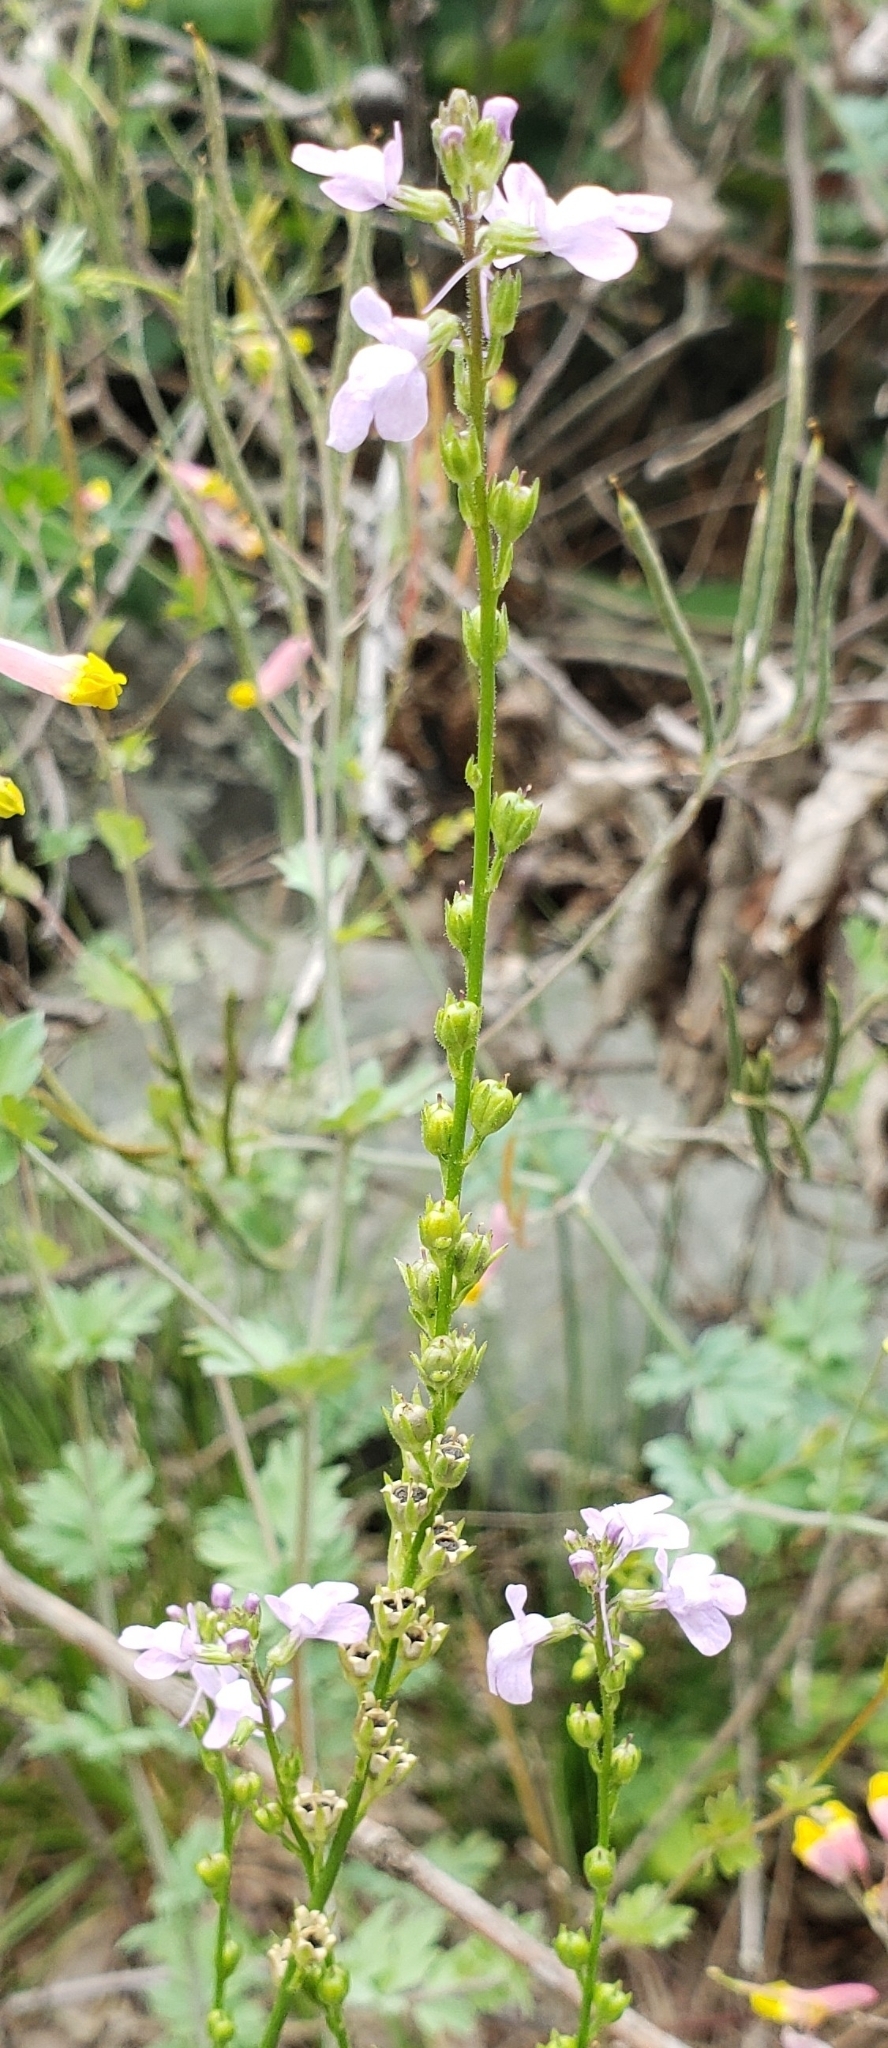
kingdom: Plantae
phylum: Tracheophyta
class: Magnoliopsida
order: Lamiales
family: Plantaginaceae
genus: Nuttallanthus
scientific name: Nuttallanthus canadensis
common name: Blue toadflax
